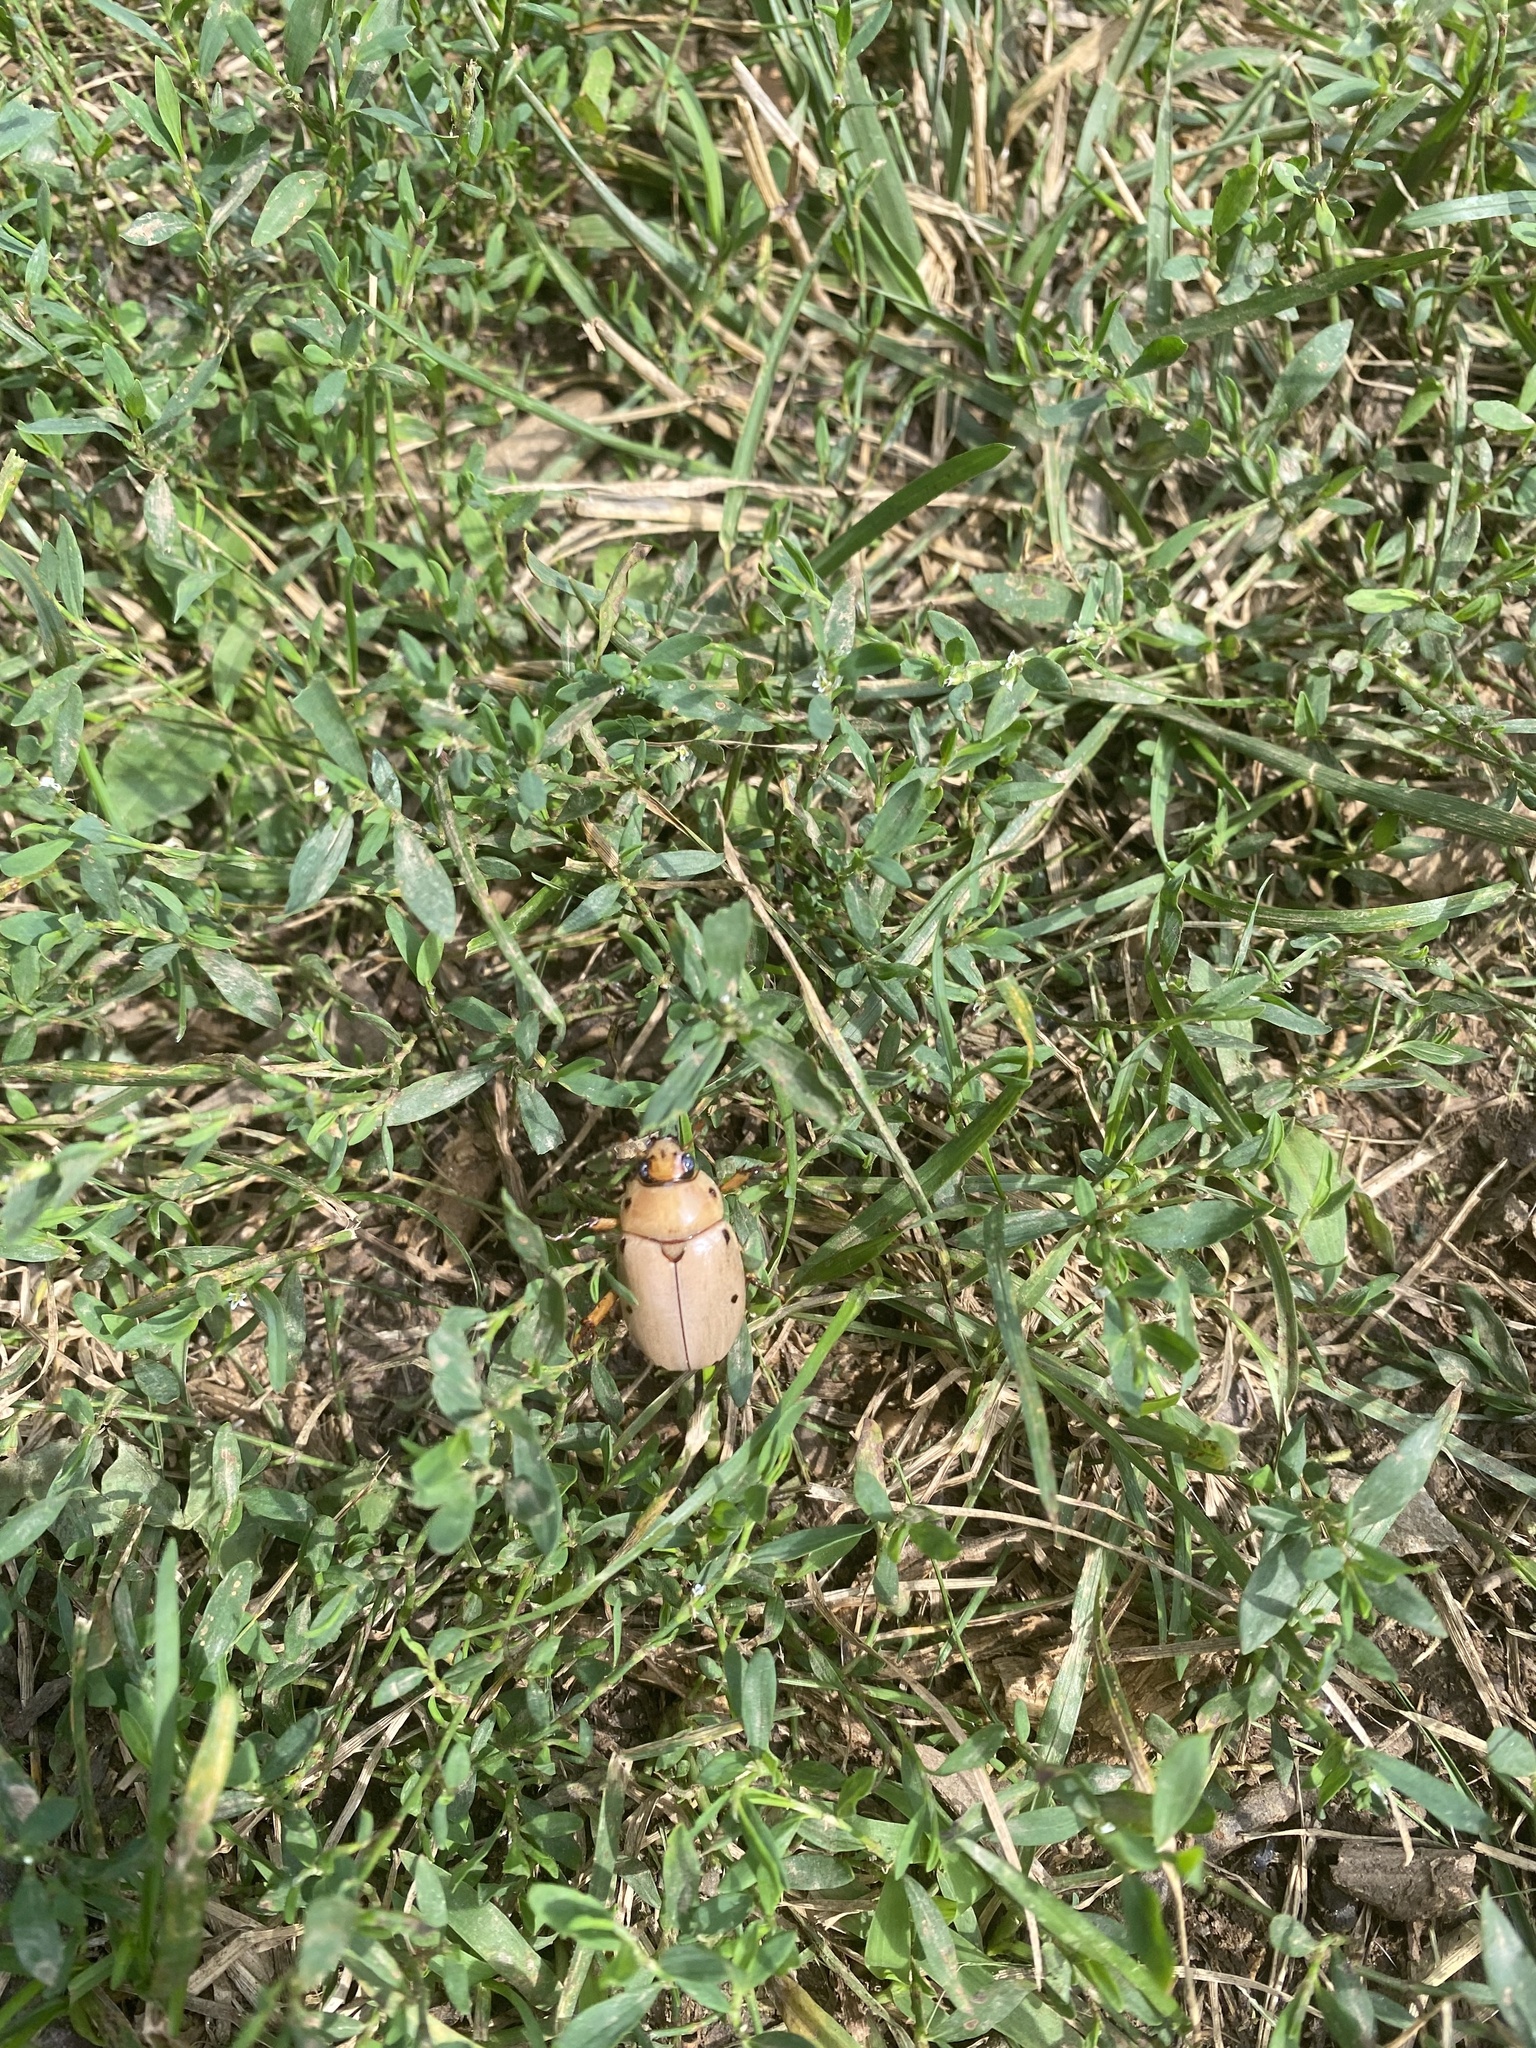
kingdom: Animalia
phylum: Arthropoda
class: Insecta
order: Coleoptera
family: Scarabaeidae
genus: Pelidnota
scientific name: Pelidnota punctata
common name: Grapevine beetle
